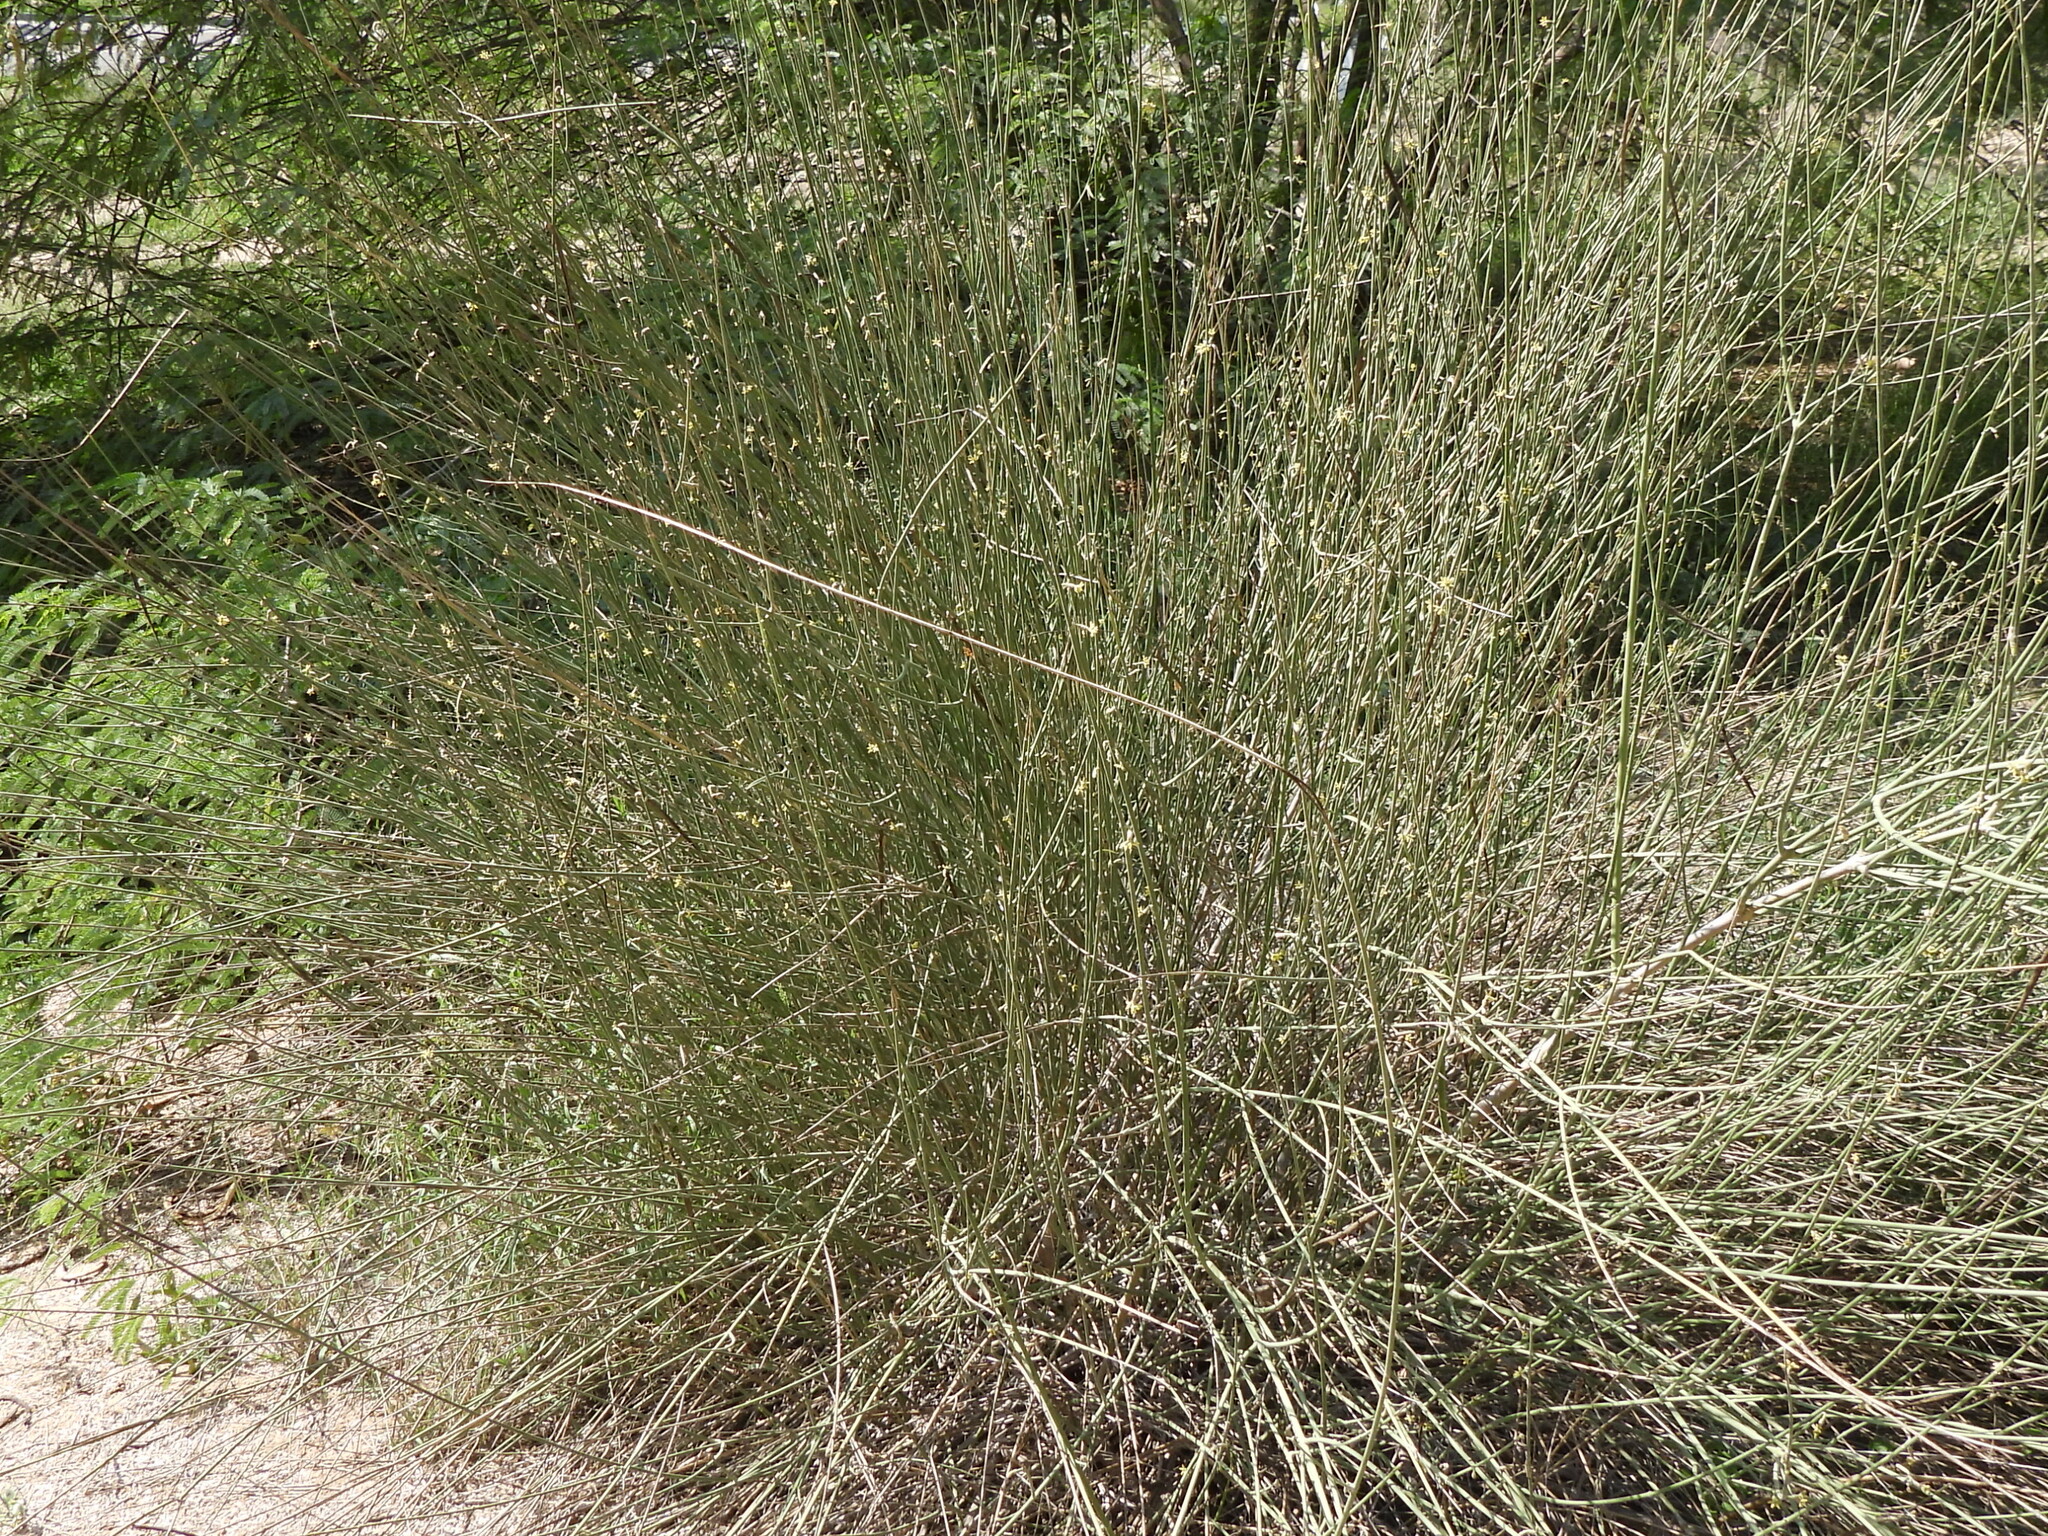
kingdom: Plantae
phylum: Tracheophyta
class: Magnoliopsida
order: Gentianales
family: Apocynaceae
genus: Leptadenia
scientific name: Leptadenia pyrotechnica
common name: Broom brush
